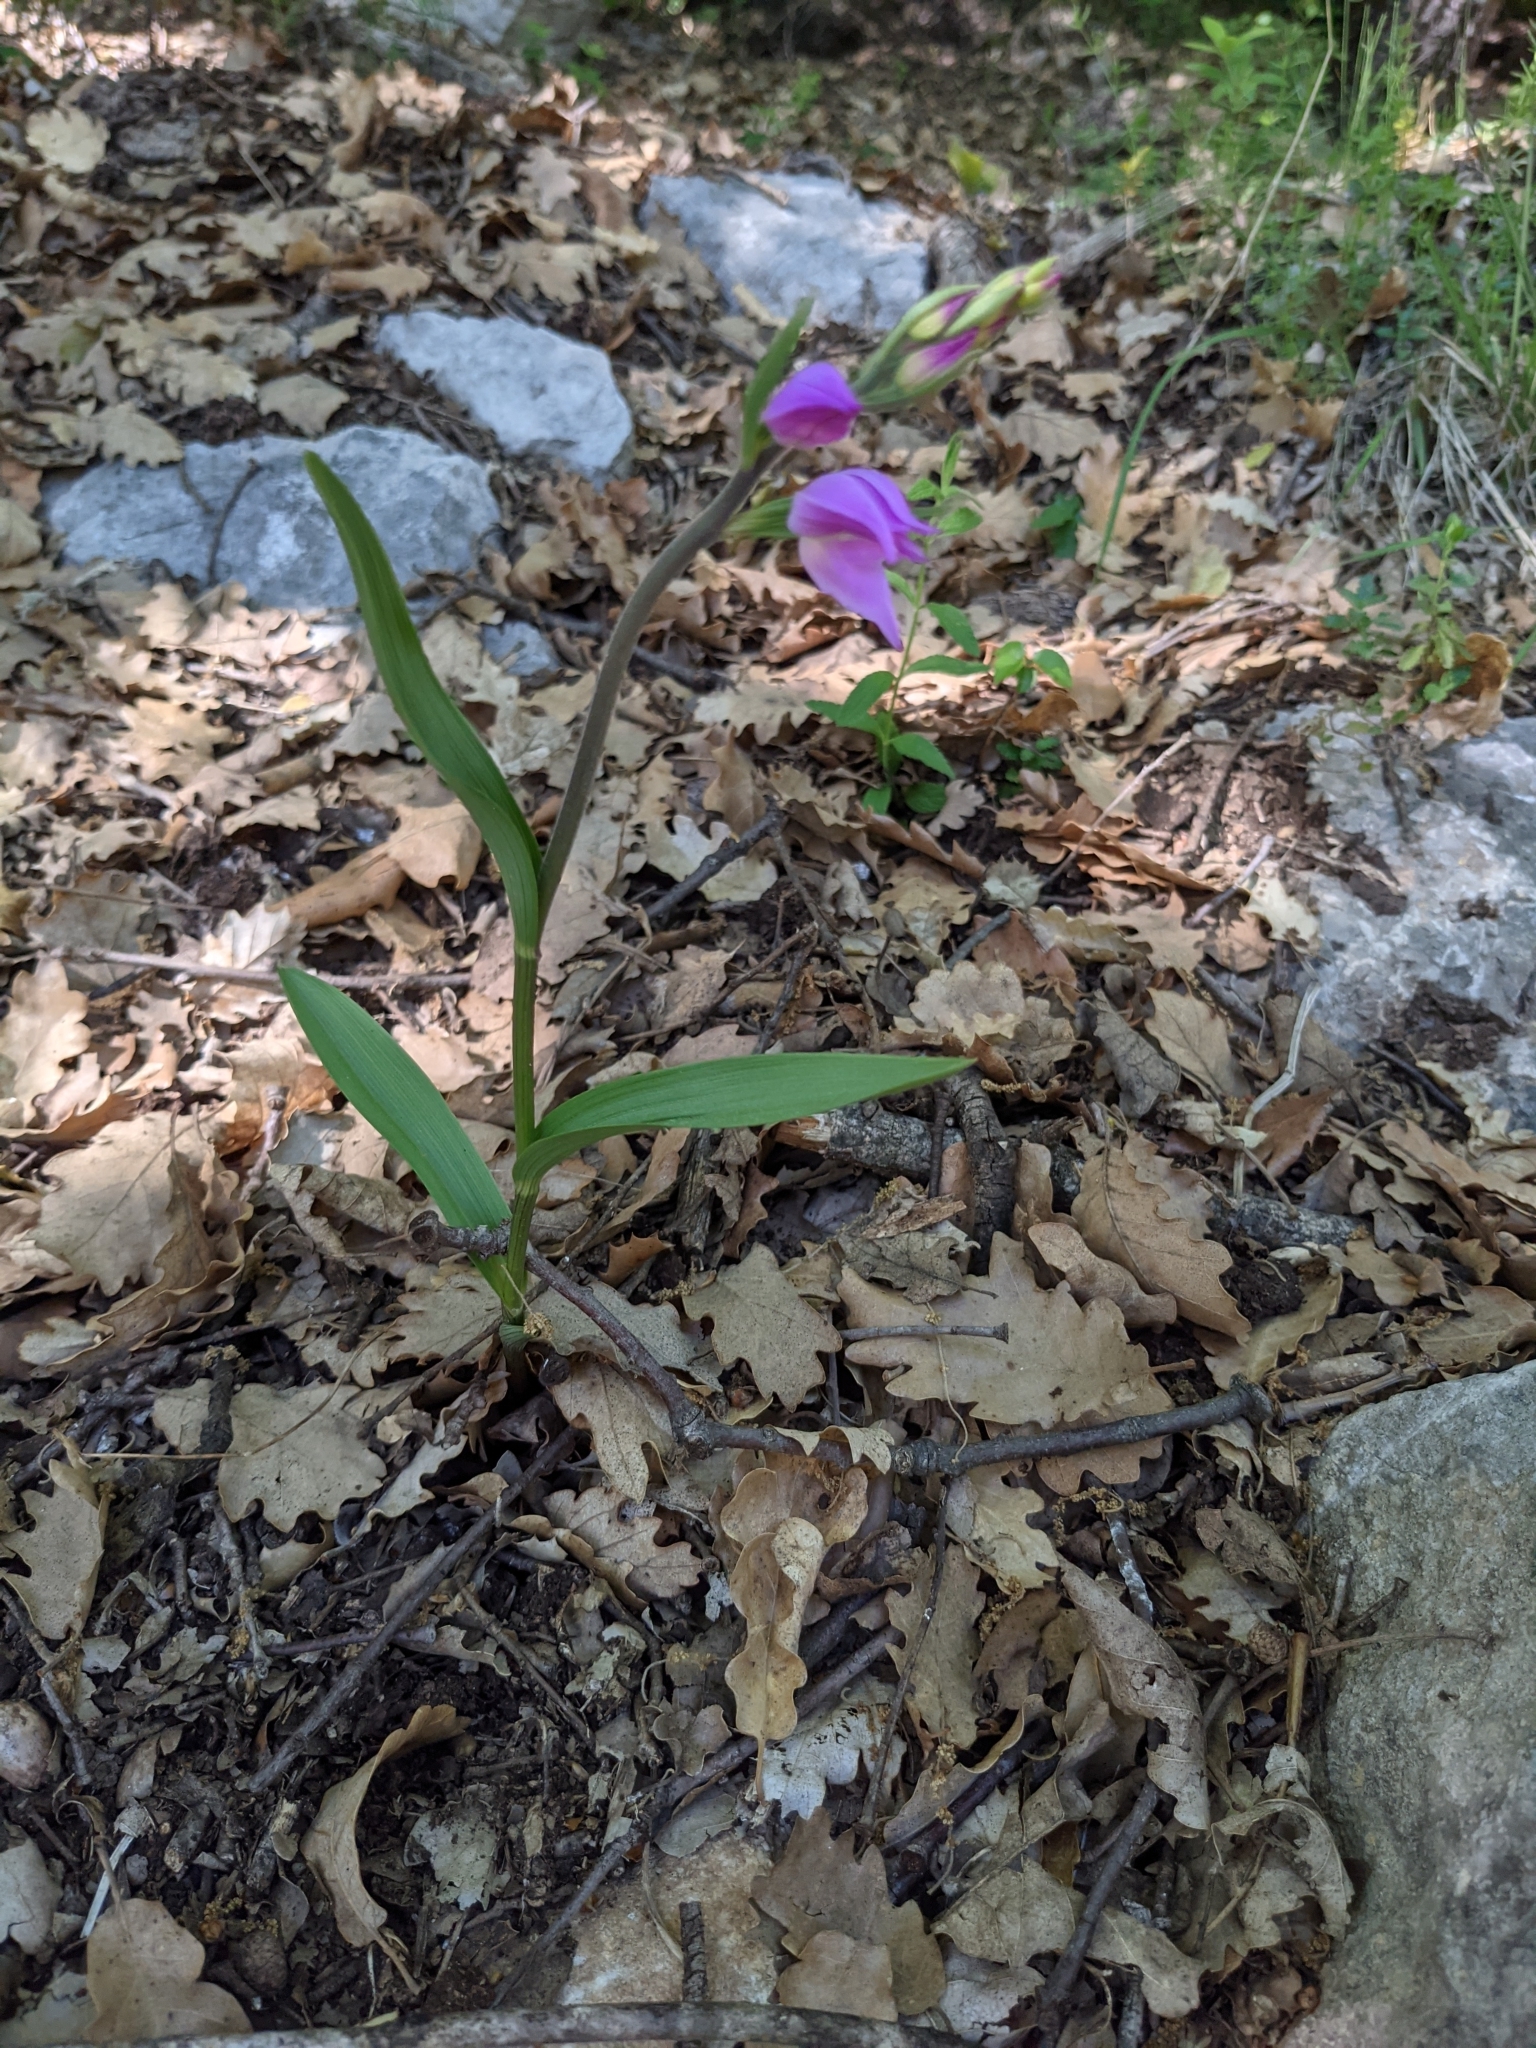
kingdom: Plantae
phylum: Tracheophyta
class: Liliopsida
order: Asparagales
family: Orchidaceae
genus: Cephalanthera
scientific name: Cephalanthera rubra
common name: Red helleborine
